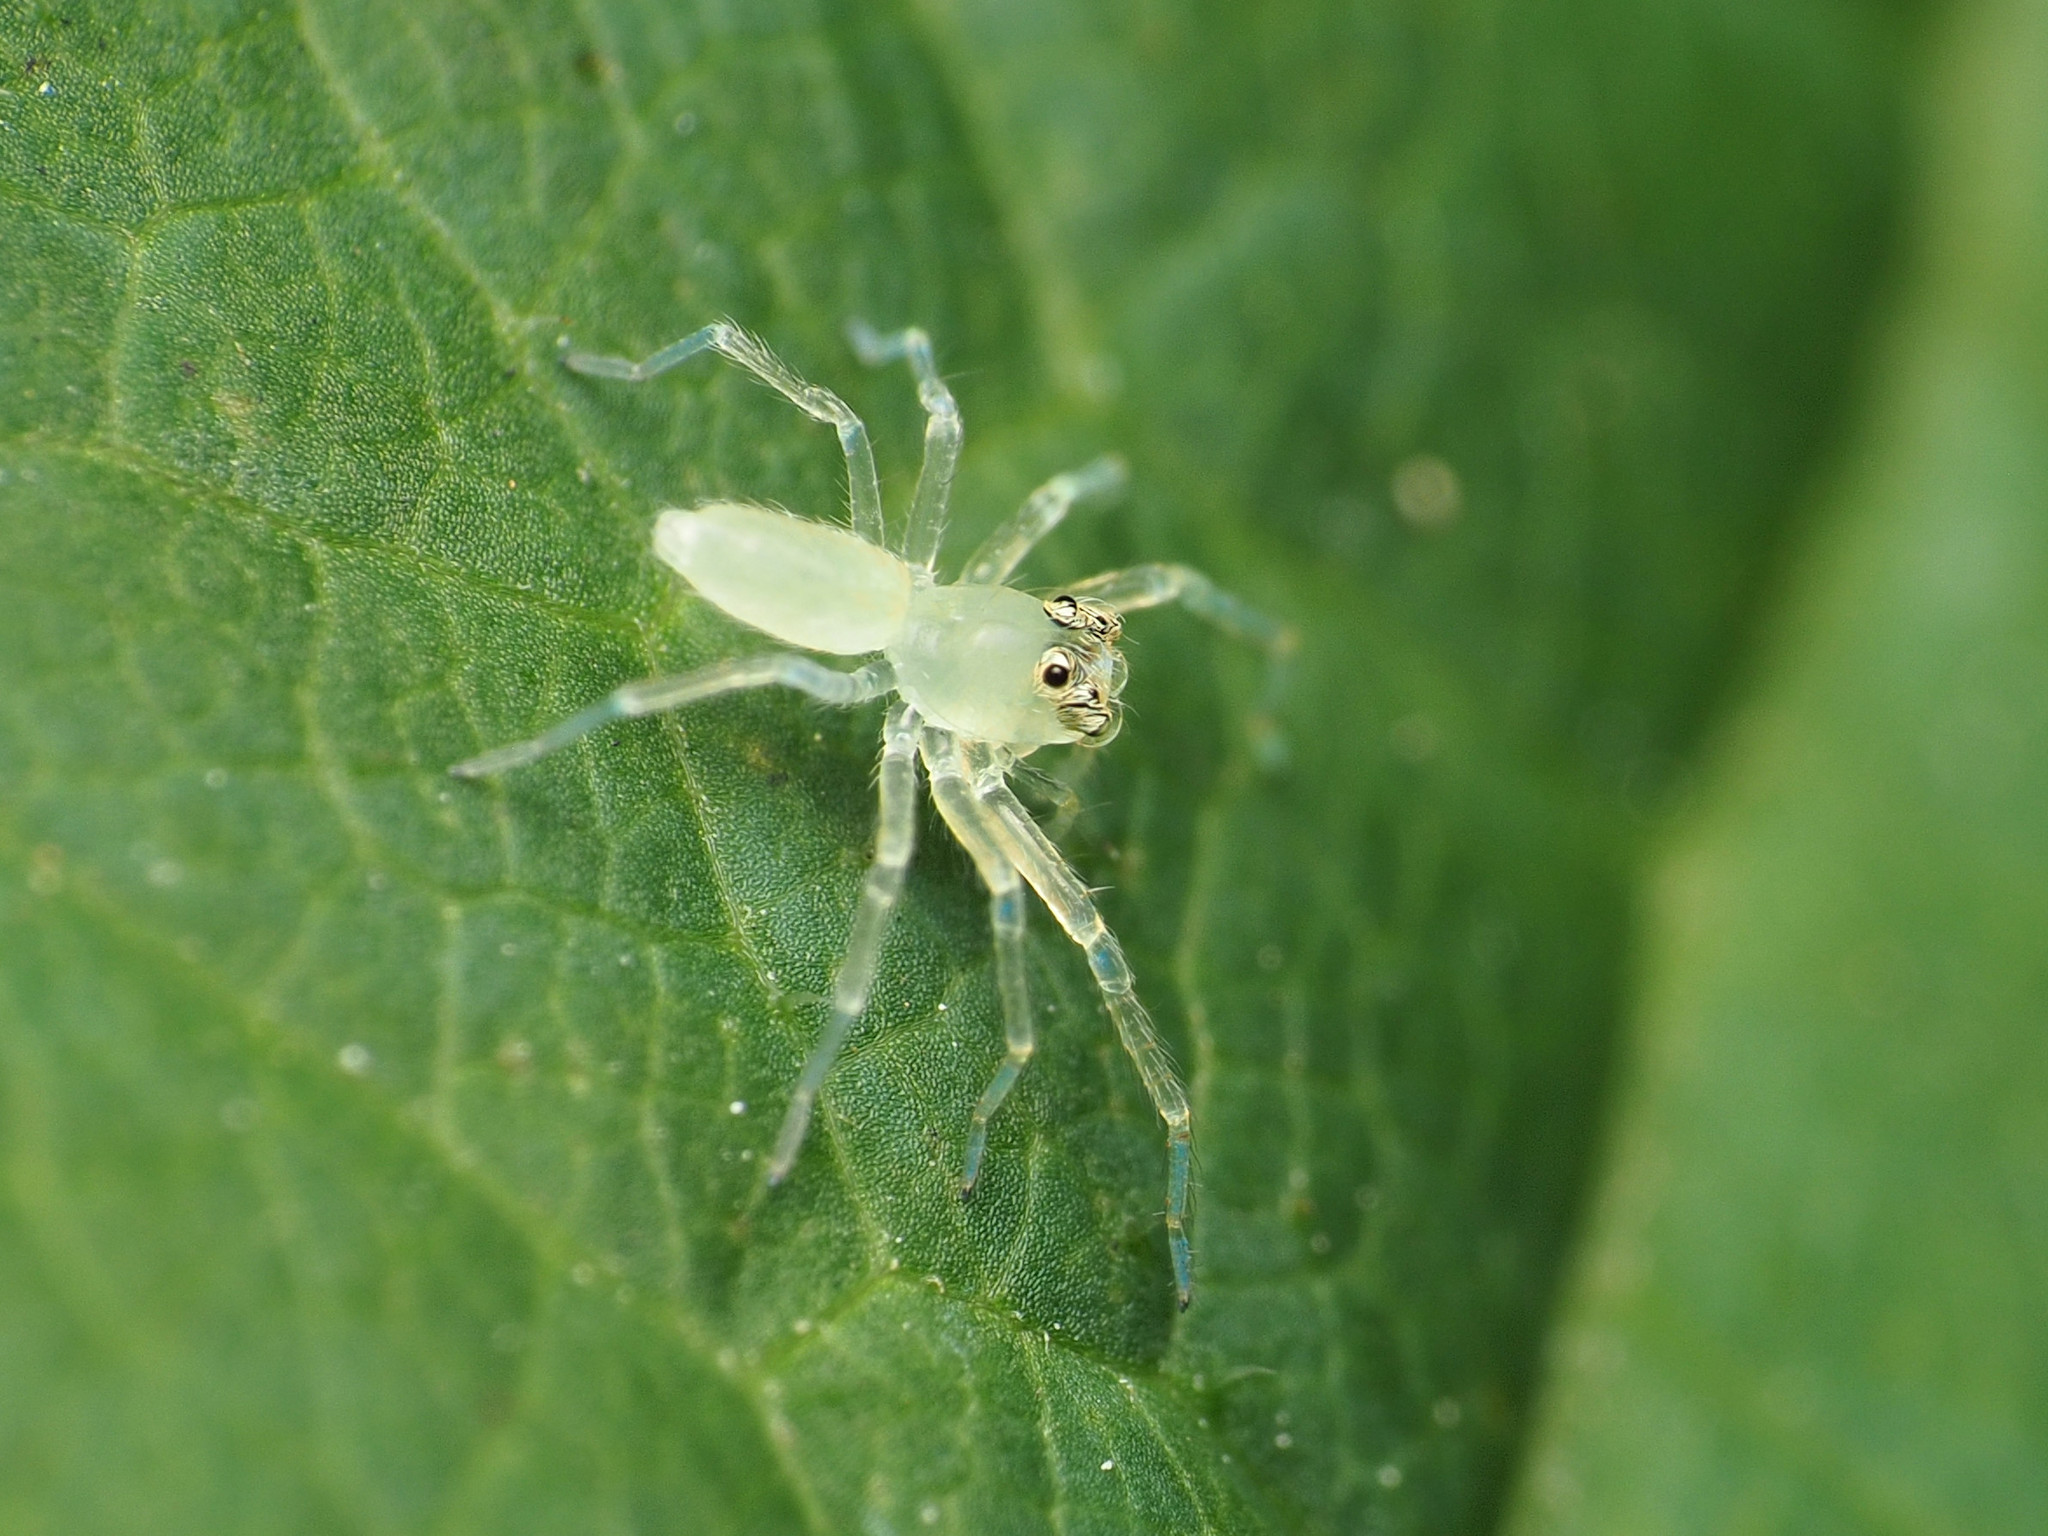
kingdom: Animalia
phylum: Arthropoda
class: Arachnida
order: Araneae
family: Salticidae
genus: Lyssomanes
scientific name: Lyssomanes viridis
